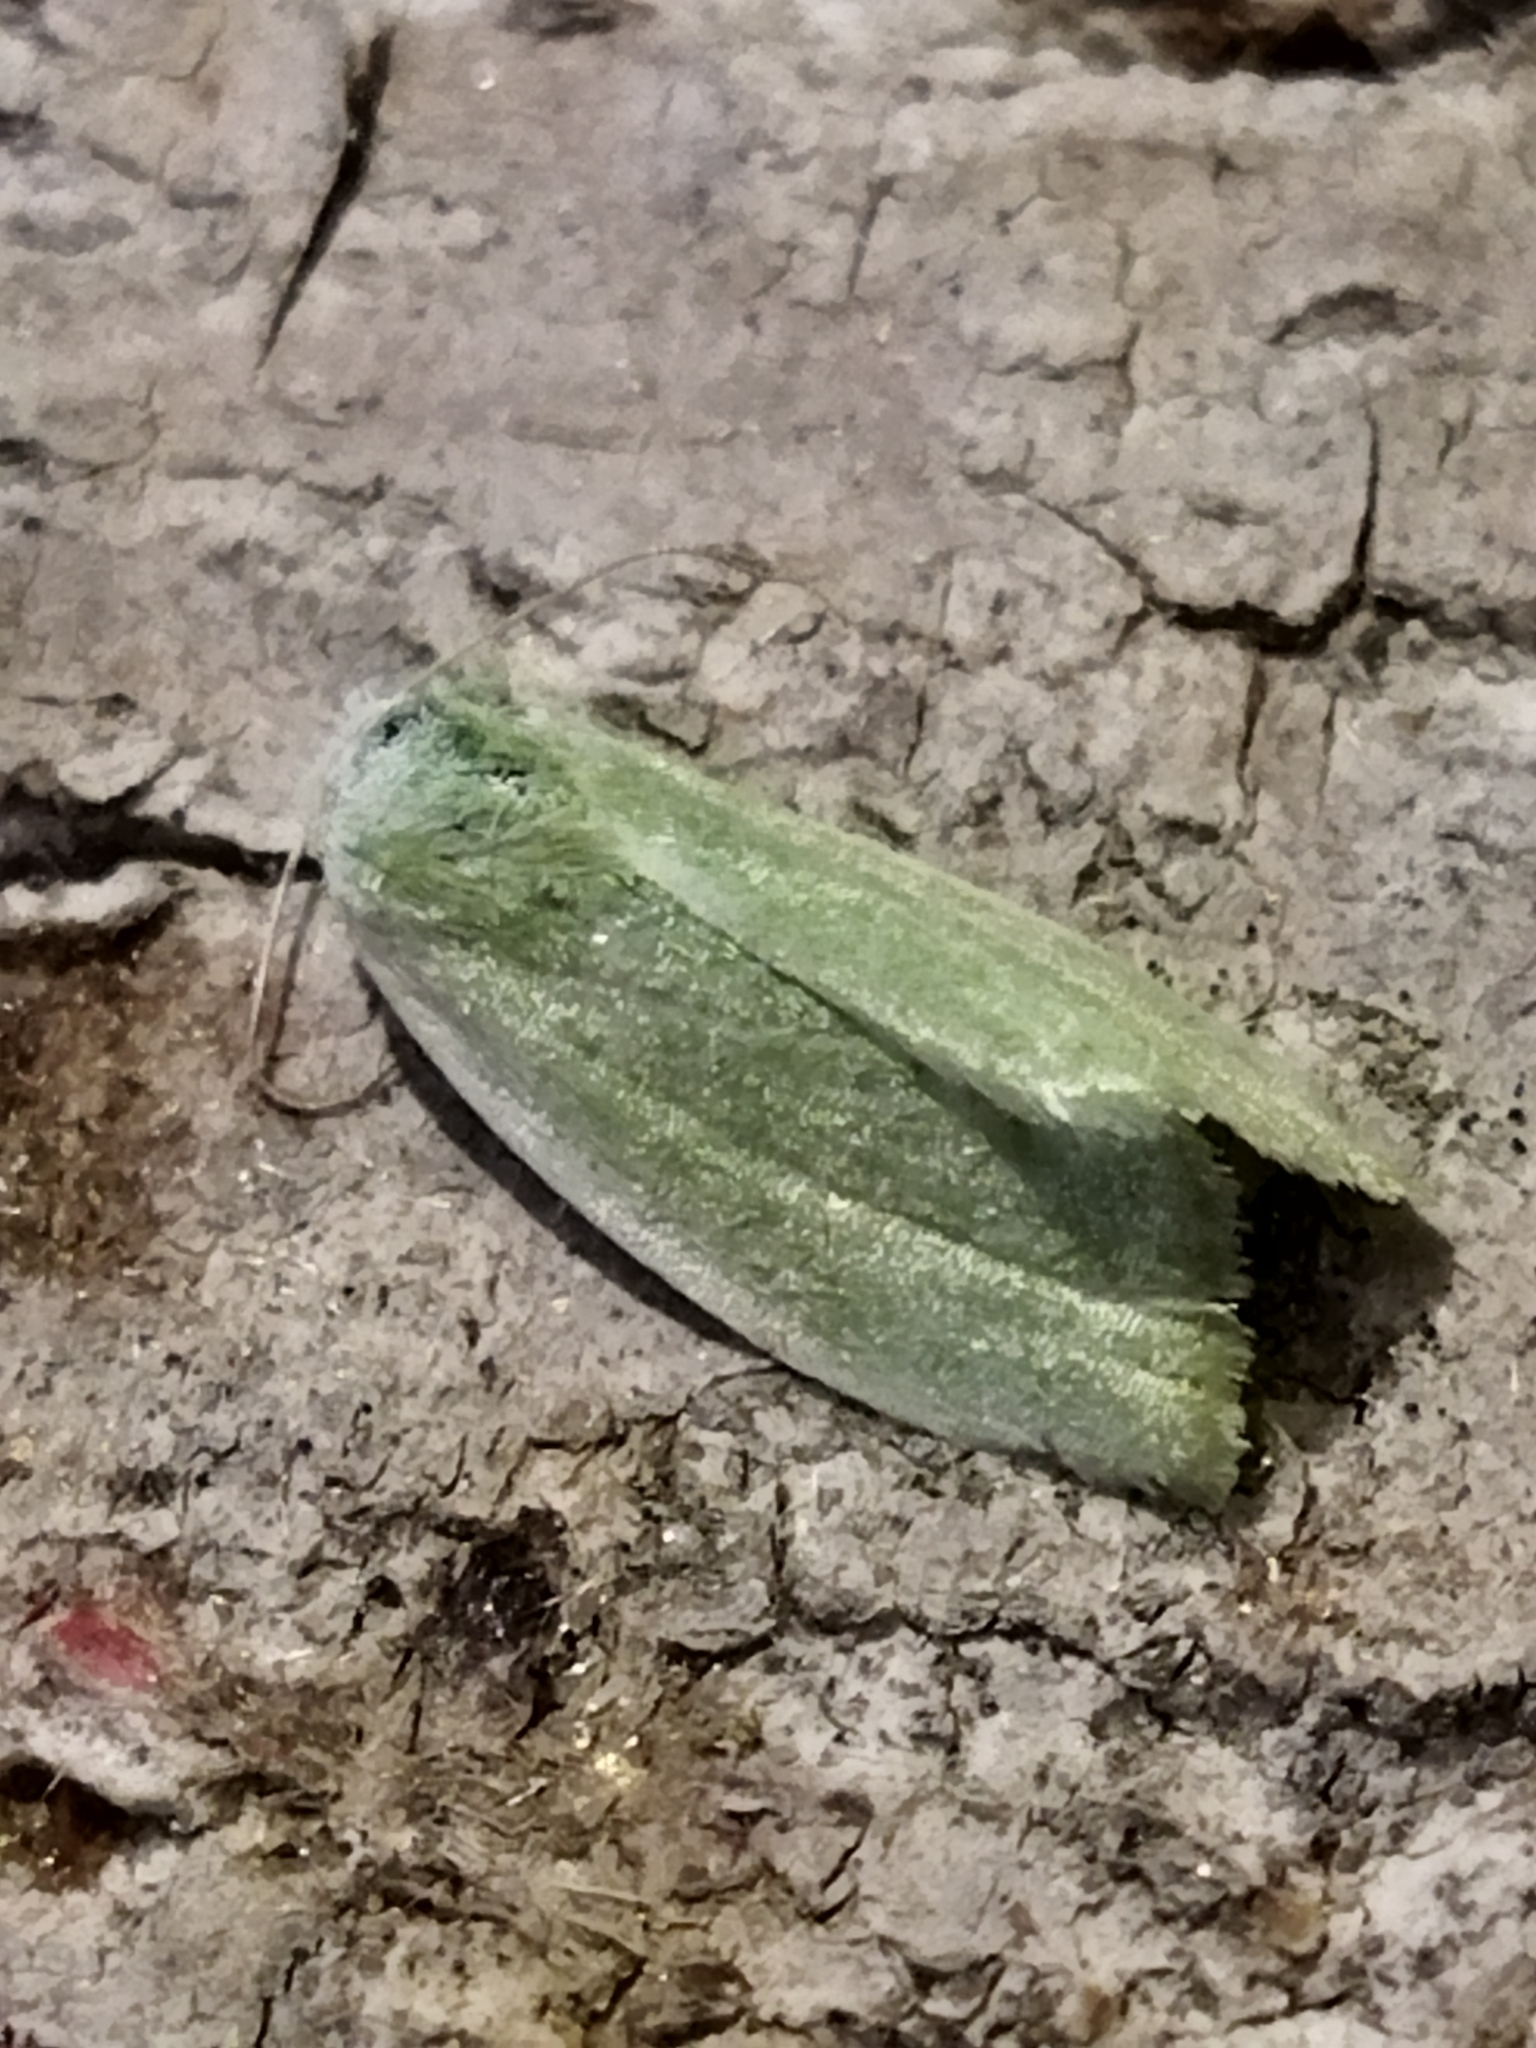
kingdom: Animalia
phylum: Arthropoda
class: Insecta
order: Lepidoptera
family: Nolidae
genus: Earias
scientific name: Earias clorana
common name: Cream-bordered green pea
